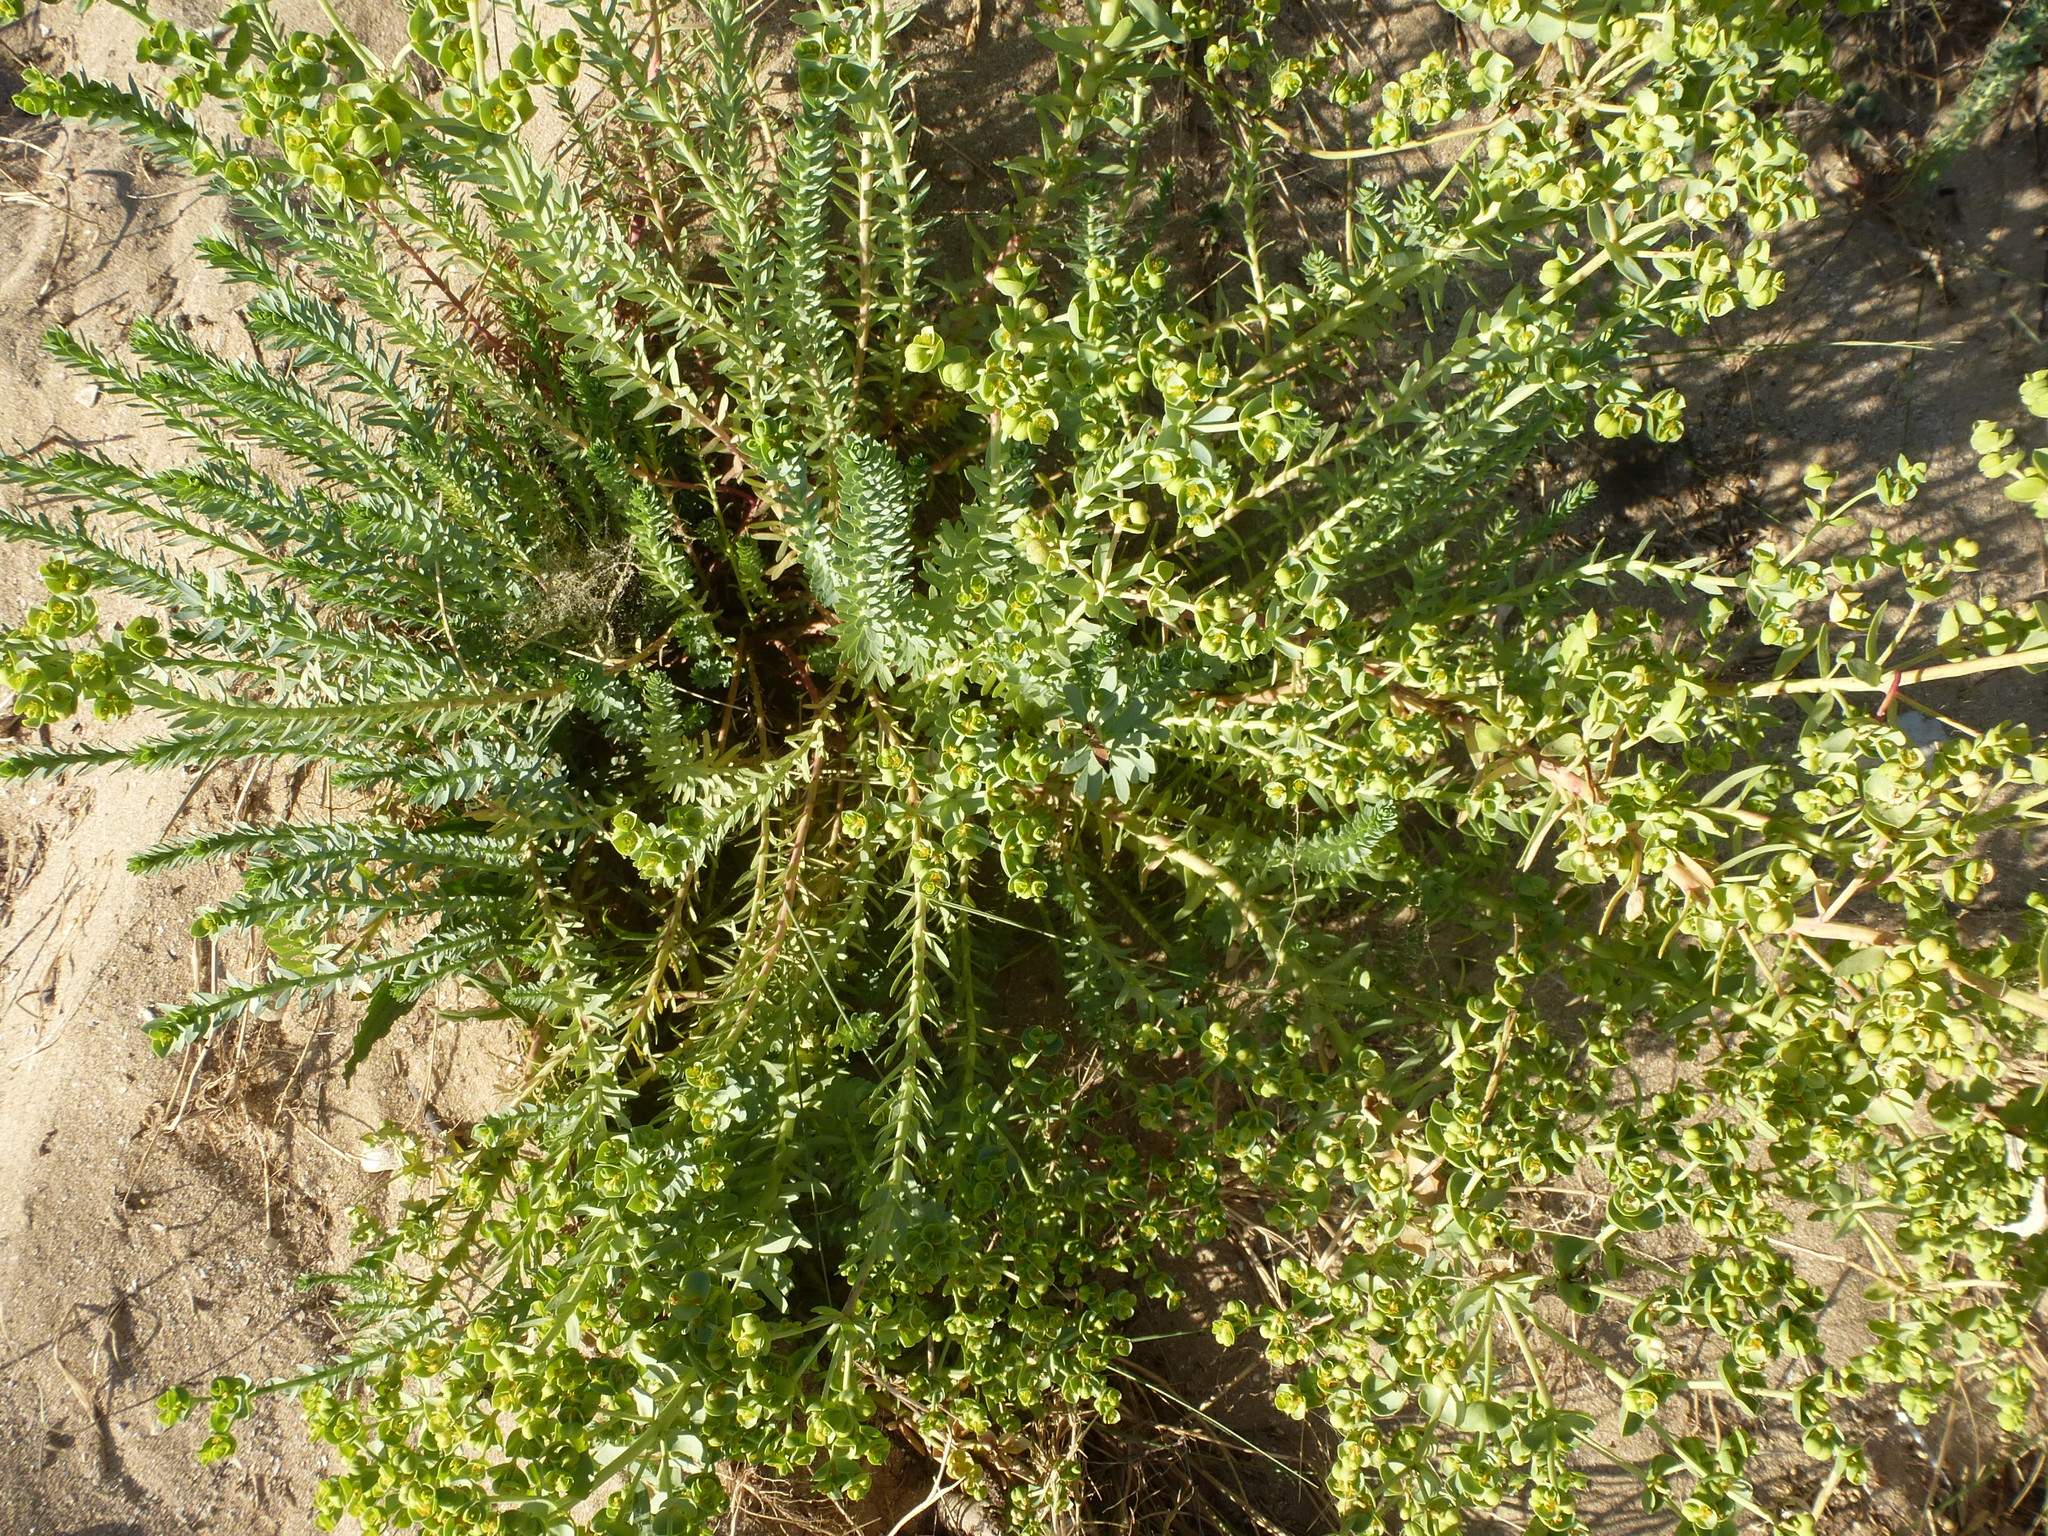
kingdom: Plantae
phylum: Tracheophyta
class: Magnoliopsida
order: Malpighiales
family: Euphorbiaceae
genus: Euphorbia
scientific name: Euphorbia paralias
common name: Sea spurge
